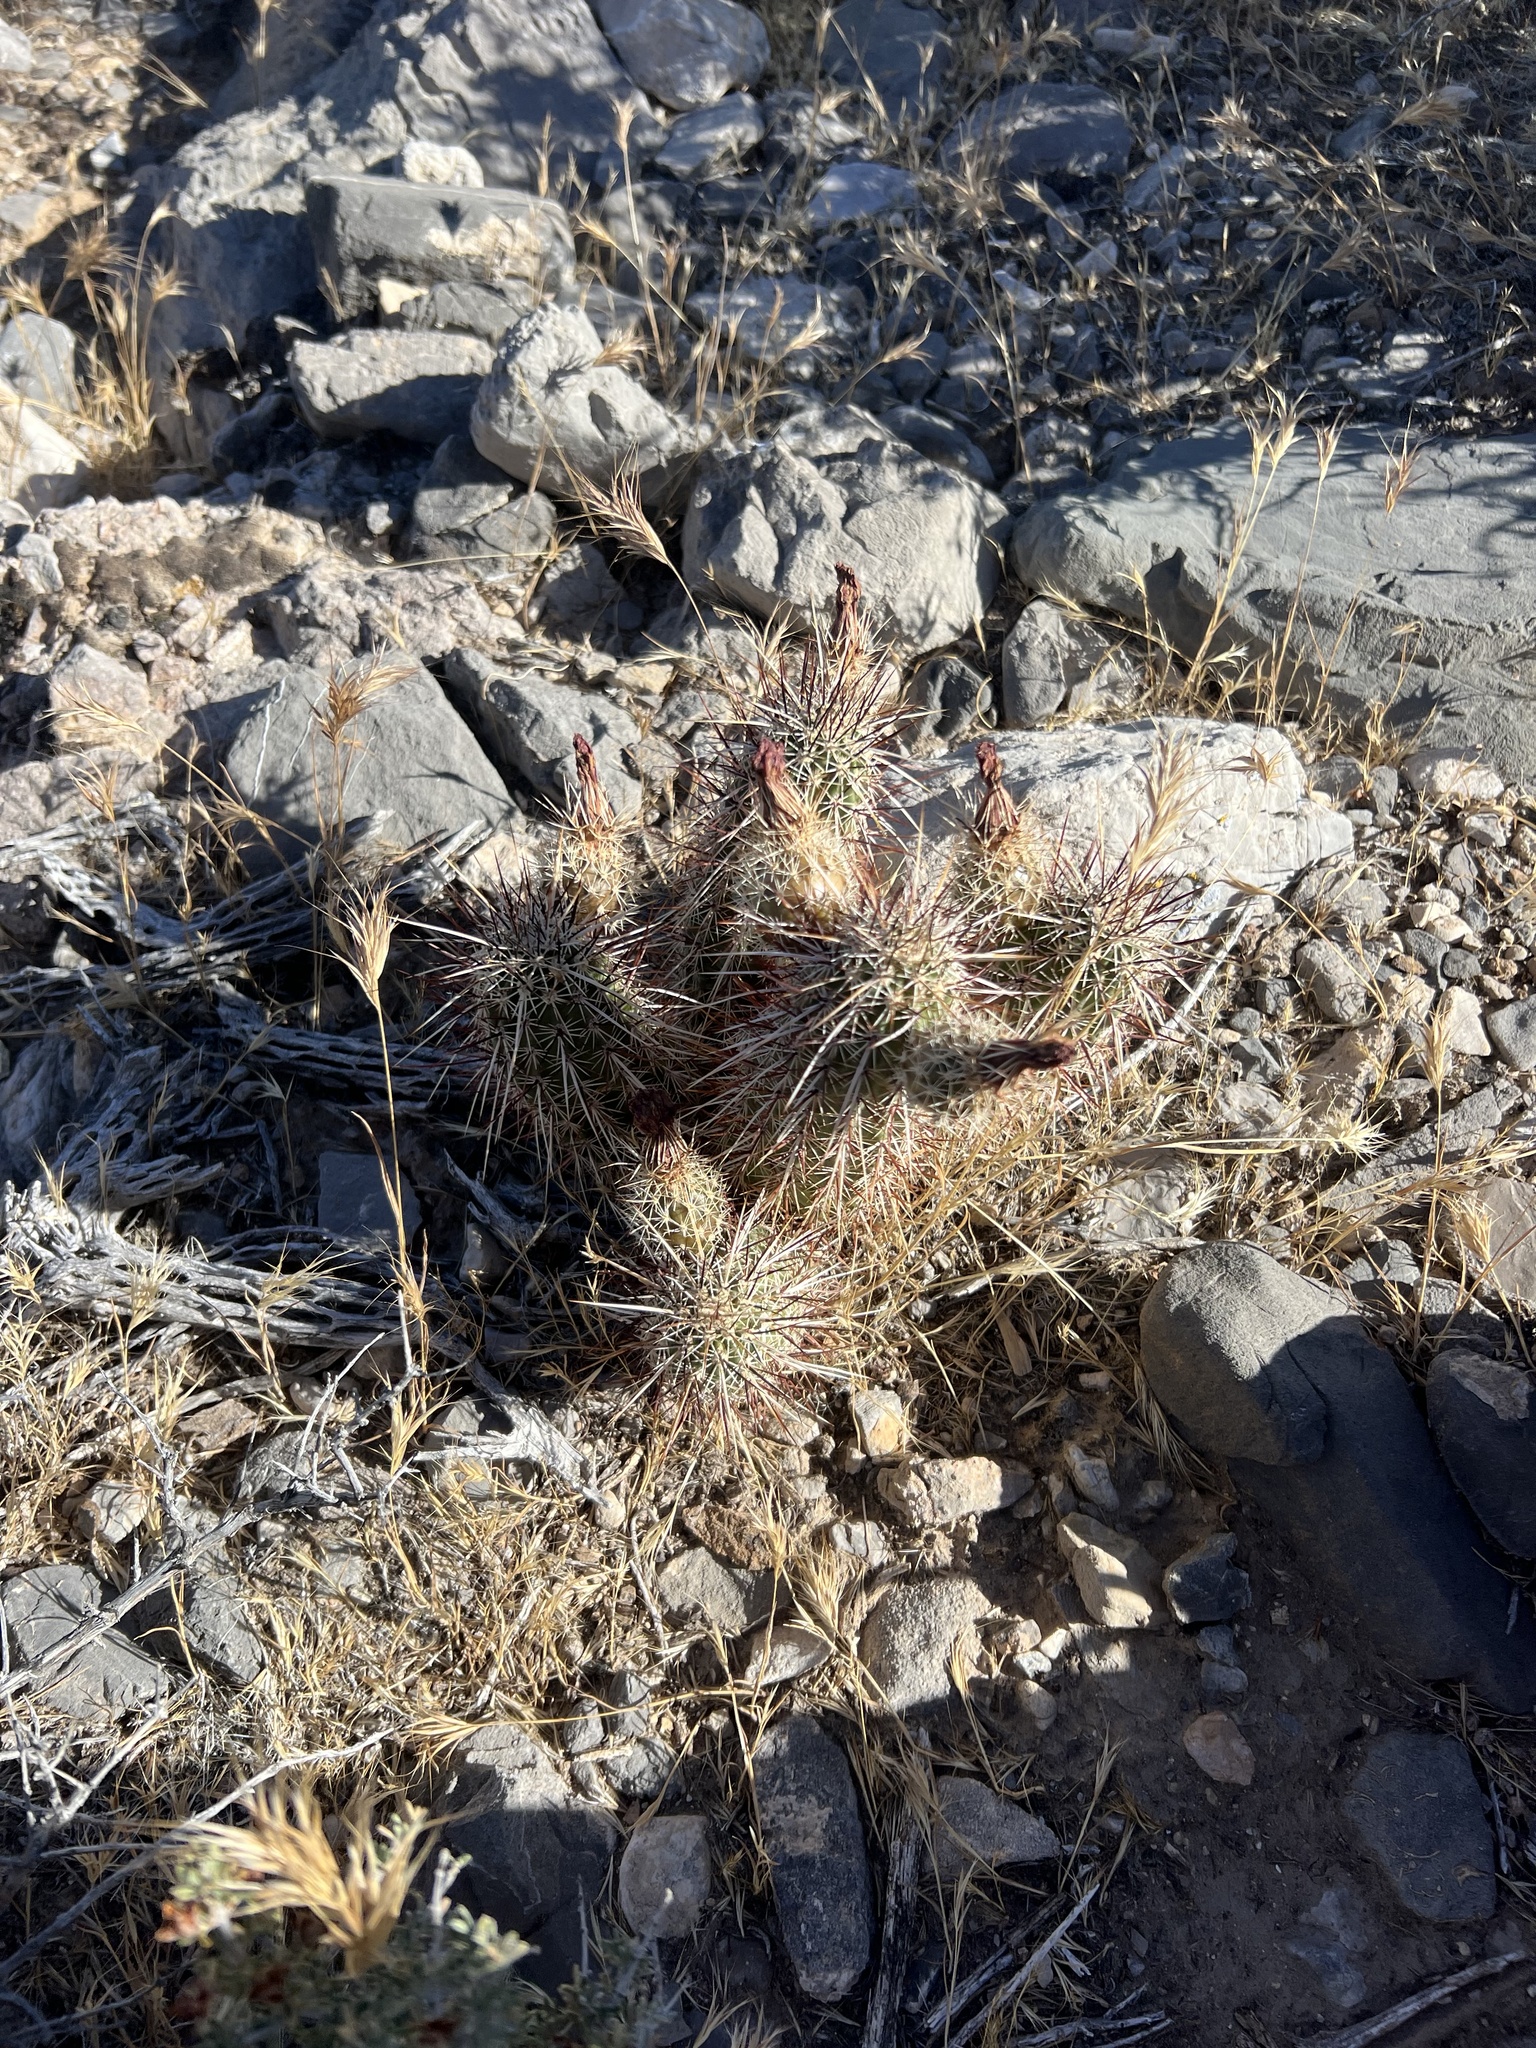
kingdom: Plantae
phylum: Tracheophyta
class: Magnoliopsida
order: Caryophyllales
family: Cactaceae
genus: Echinocereus
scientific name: Echinocereus engelmannii
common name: Engelmann's hedgehog cactus
